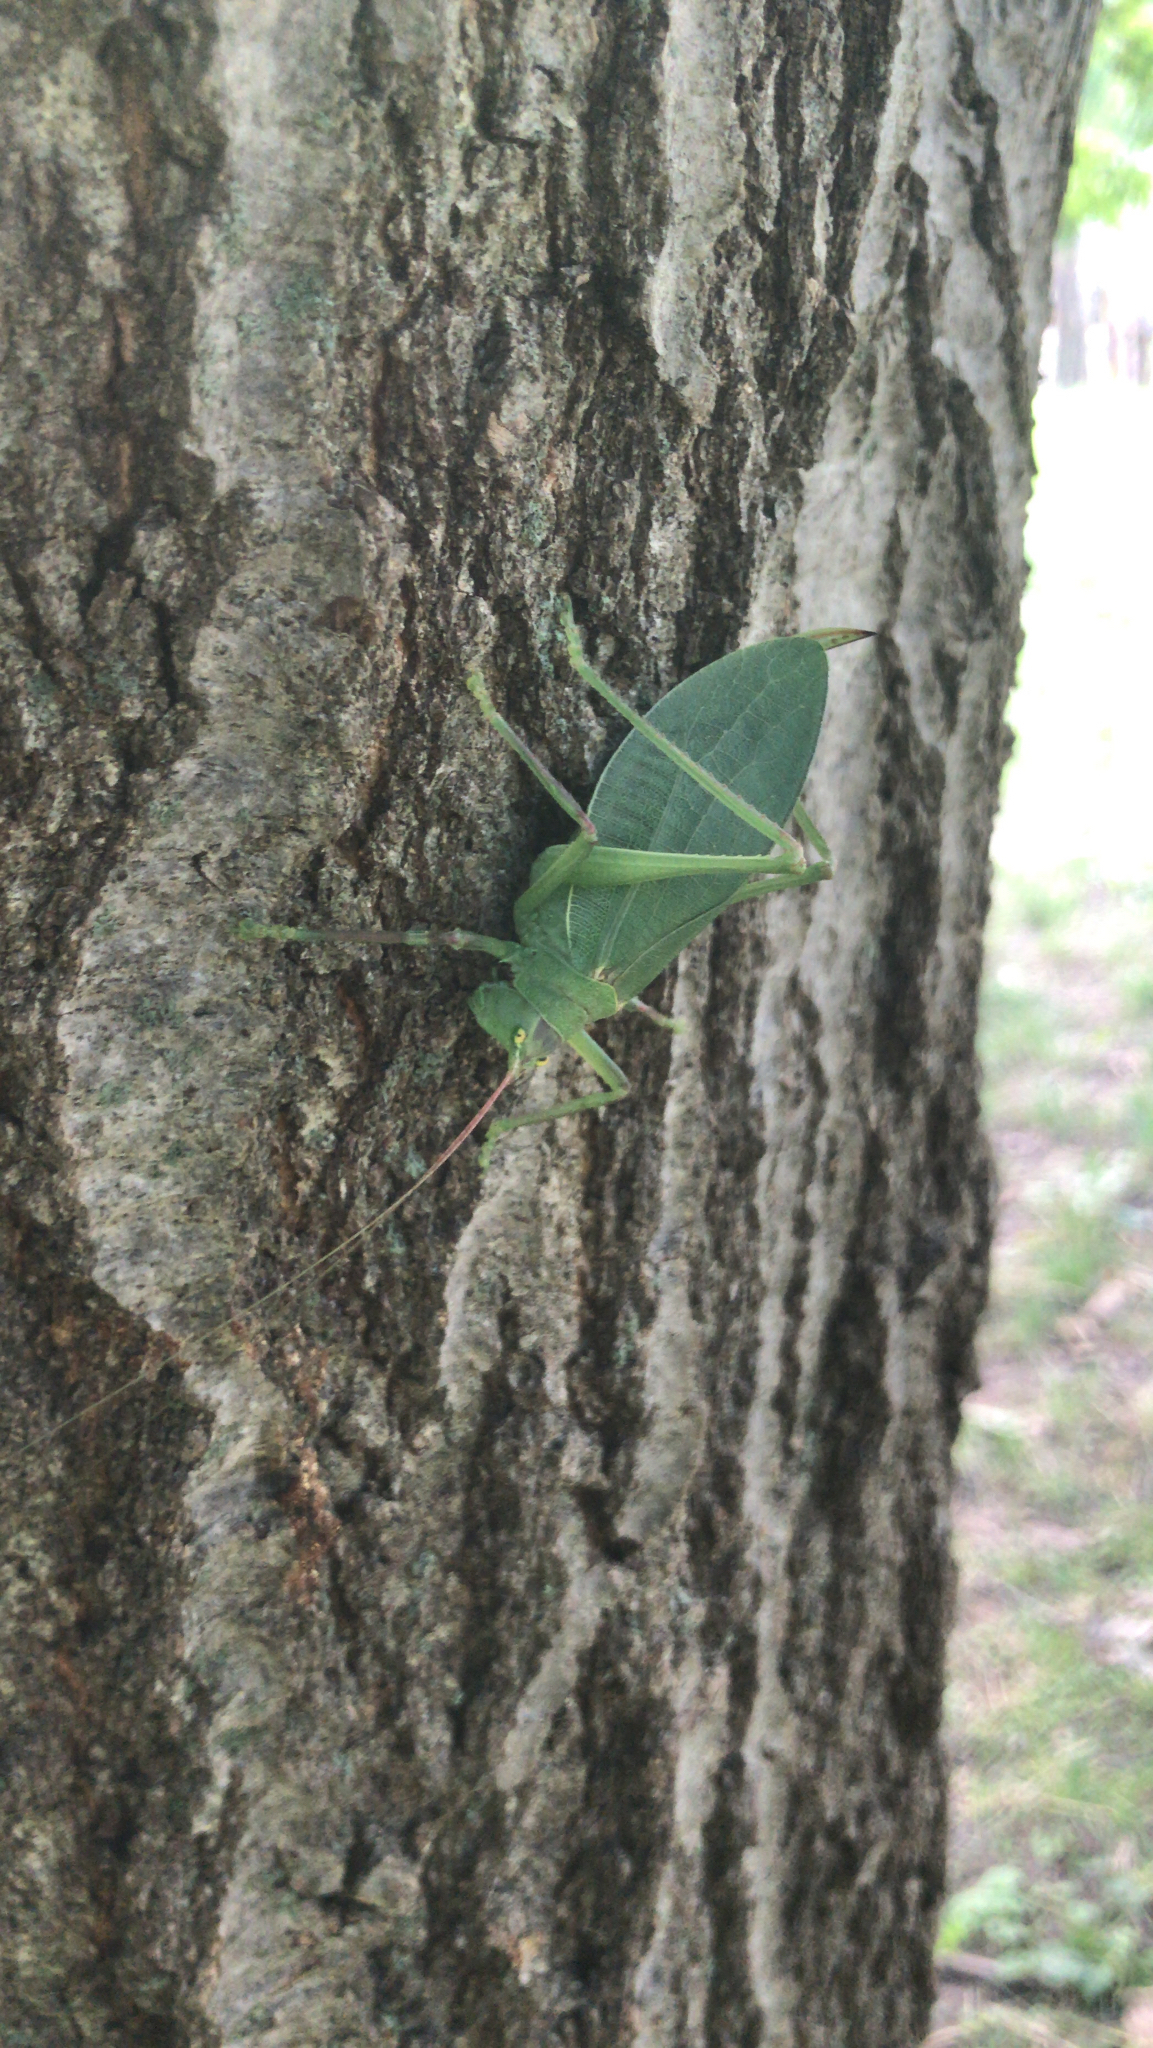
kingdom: Animalia
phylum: Arthropoda
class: Insecta
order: Orthoptera
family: Tettigoniidae
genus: Pterophylla
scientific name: Pterophylla camellifolia
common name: Common true katydid
